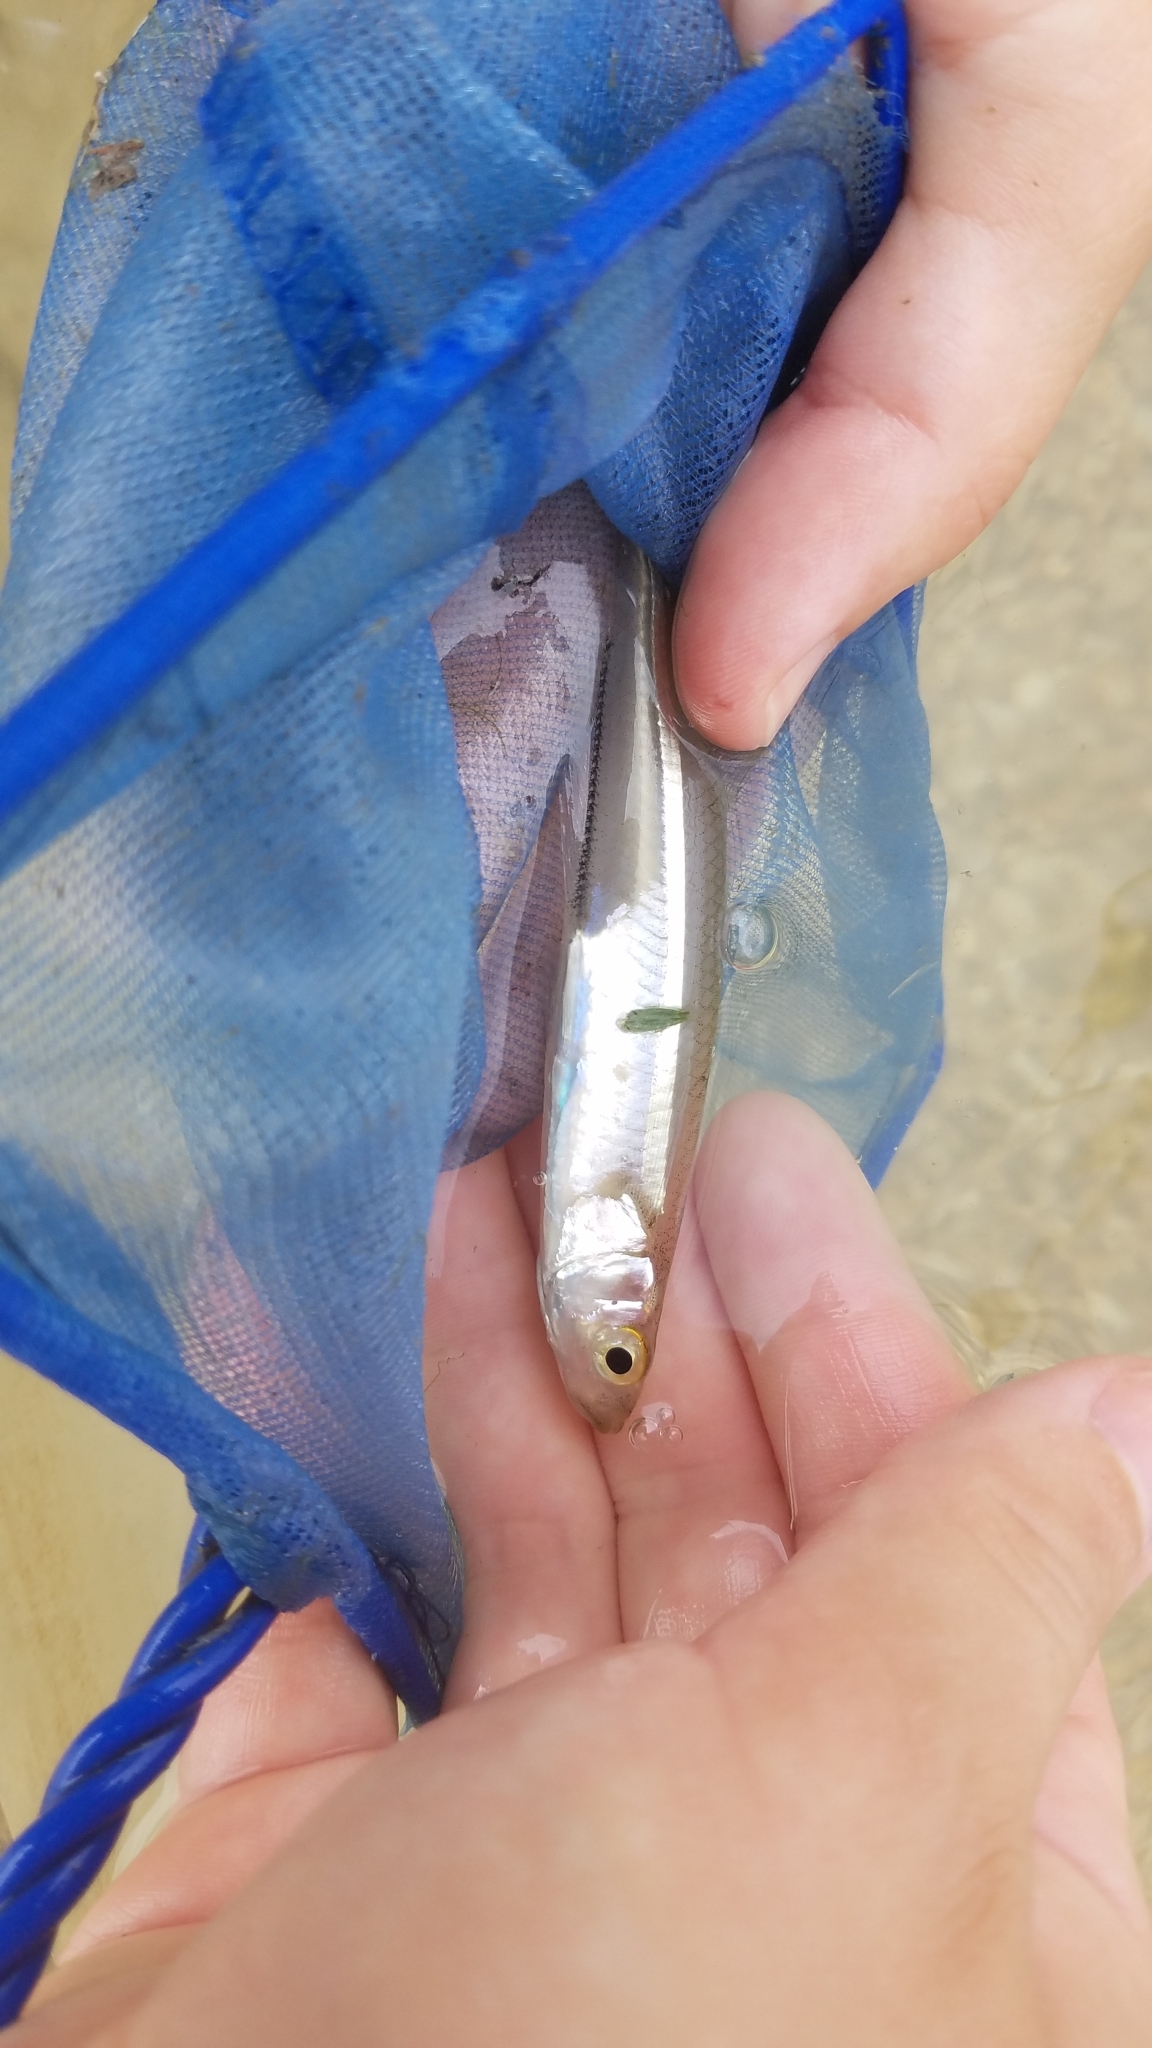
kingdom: Animalia
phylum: Chordata
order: Atheriniformes
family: Atherinopsidae
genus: Menidia
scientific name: Menidia menidia
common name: Atlantic silverside
